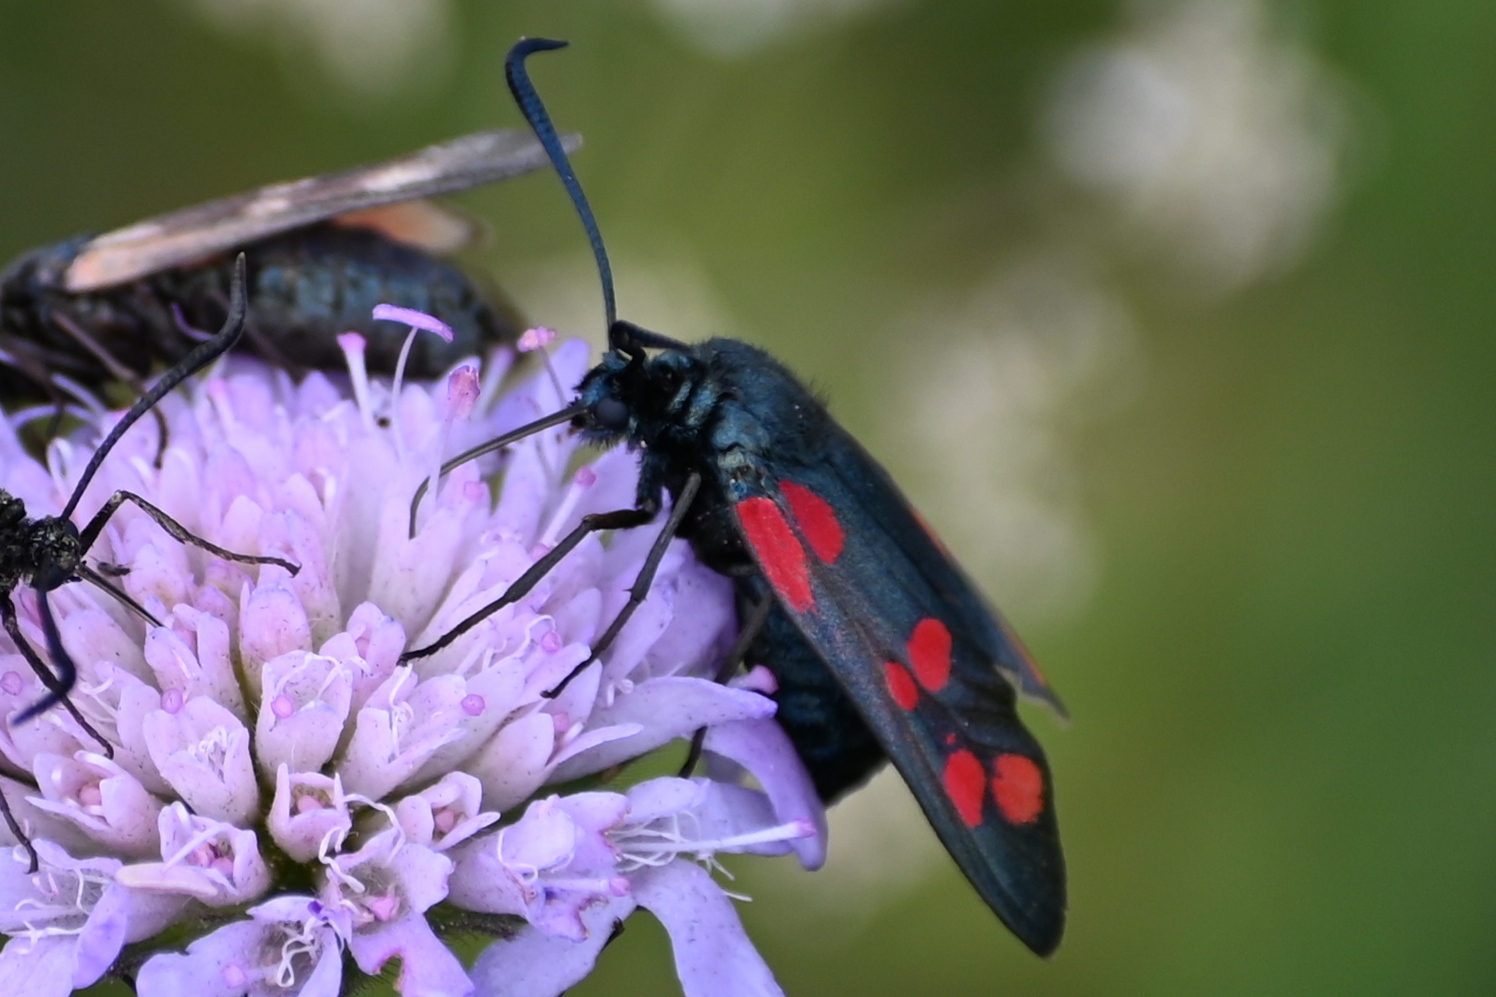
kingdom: Animalia
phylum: Arthropoda
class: Insecta
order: Lepidoptera
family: Zygaenidae
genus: Zygaena
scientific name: Zygaena filipendulae
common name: Six-spot burnet
